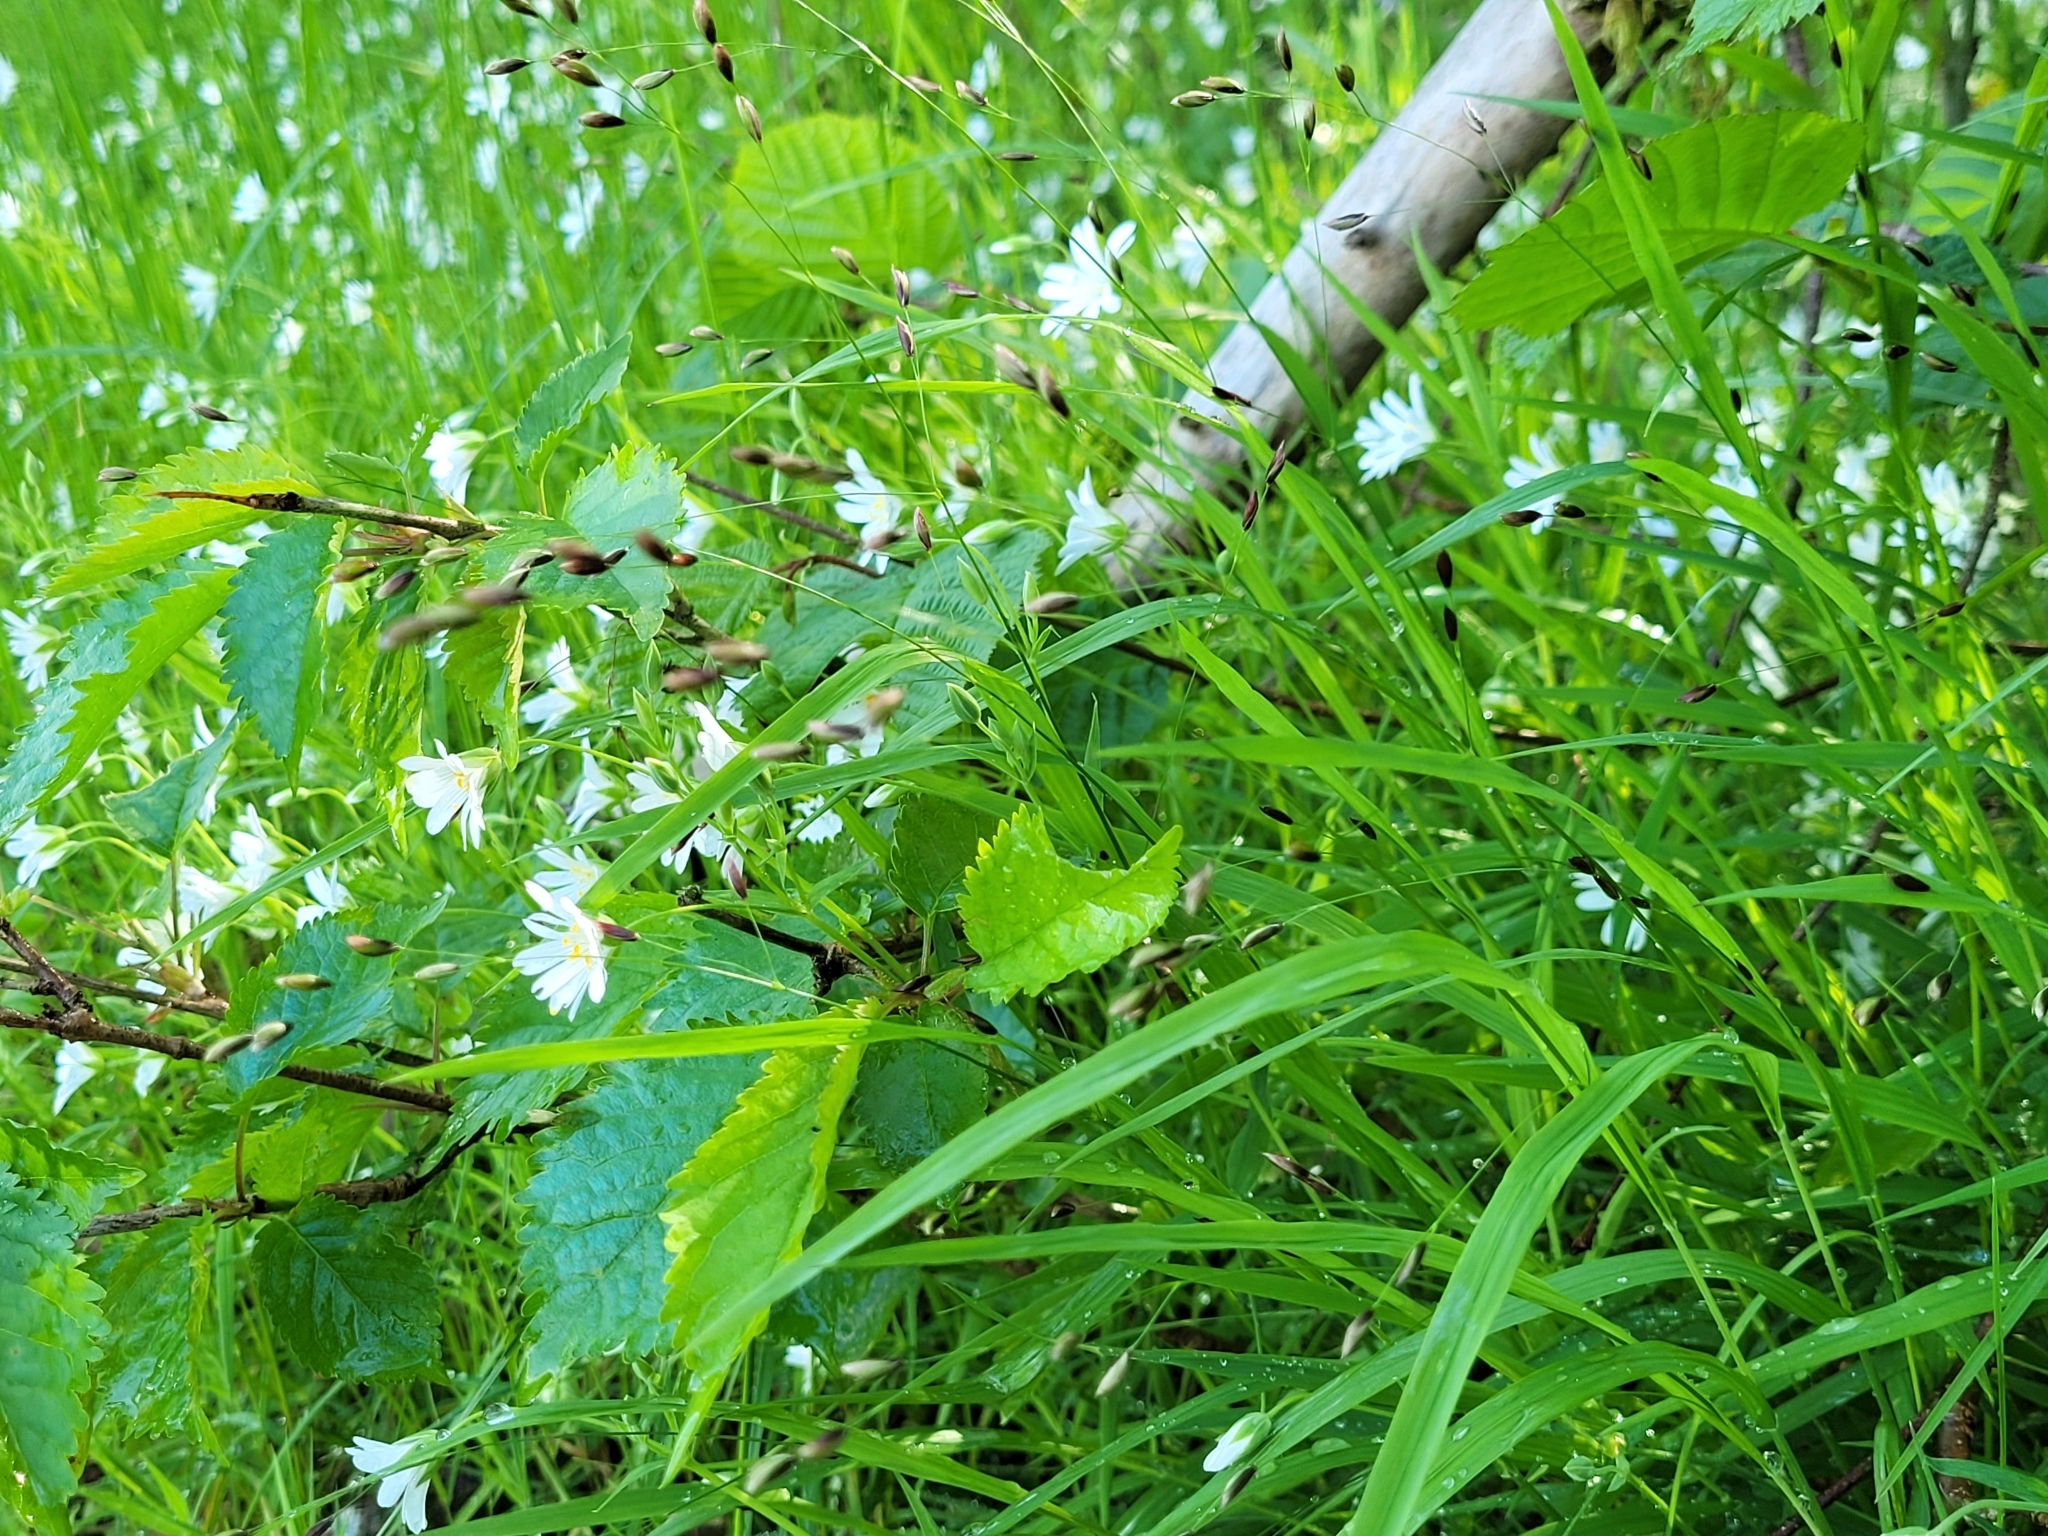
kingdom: Plantae
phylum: Tracheophyta
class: Liliopsida
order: Poales
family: Poaceae
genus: Melica
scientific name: Melica uniflora
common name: Wood melick
